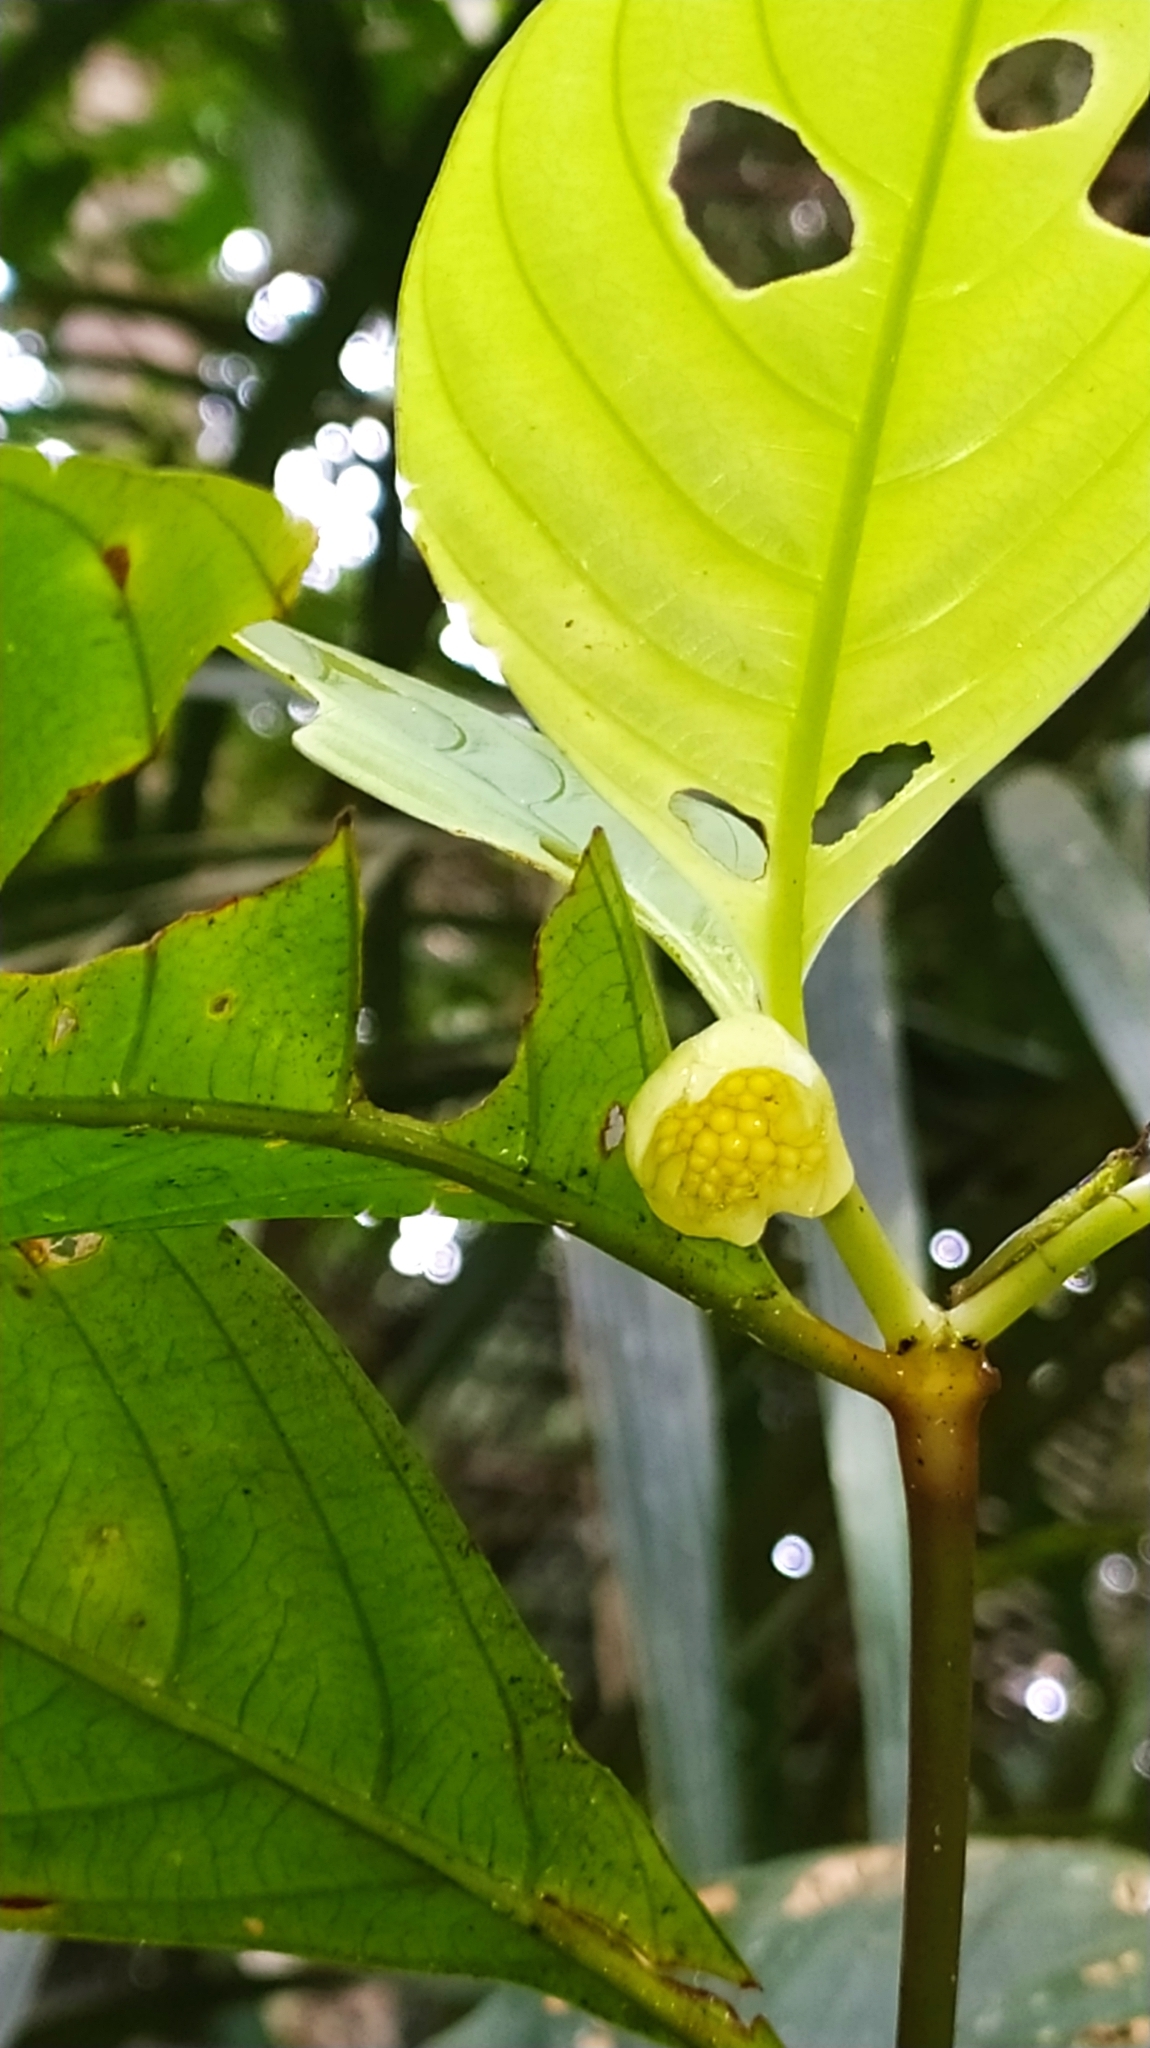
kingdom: Plantae
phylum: Tracheophyta
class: Magnoliopsida
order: Gentianales
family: Rubiaceae
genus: Palicourea
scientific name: Palicourea dichotoma
